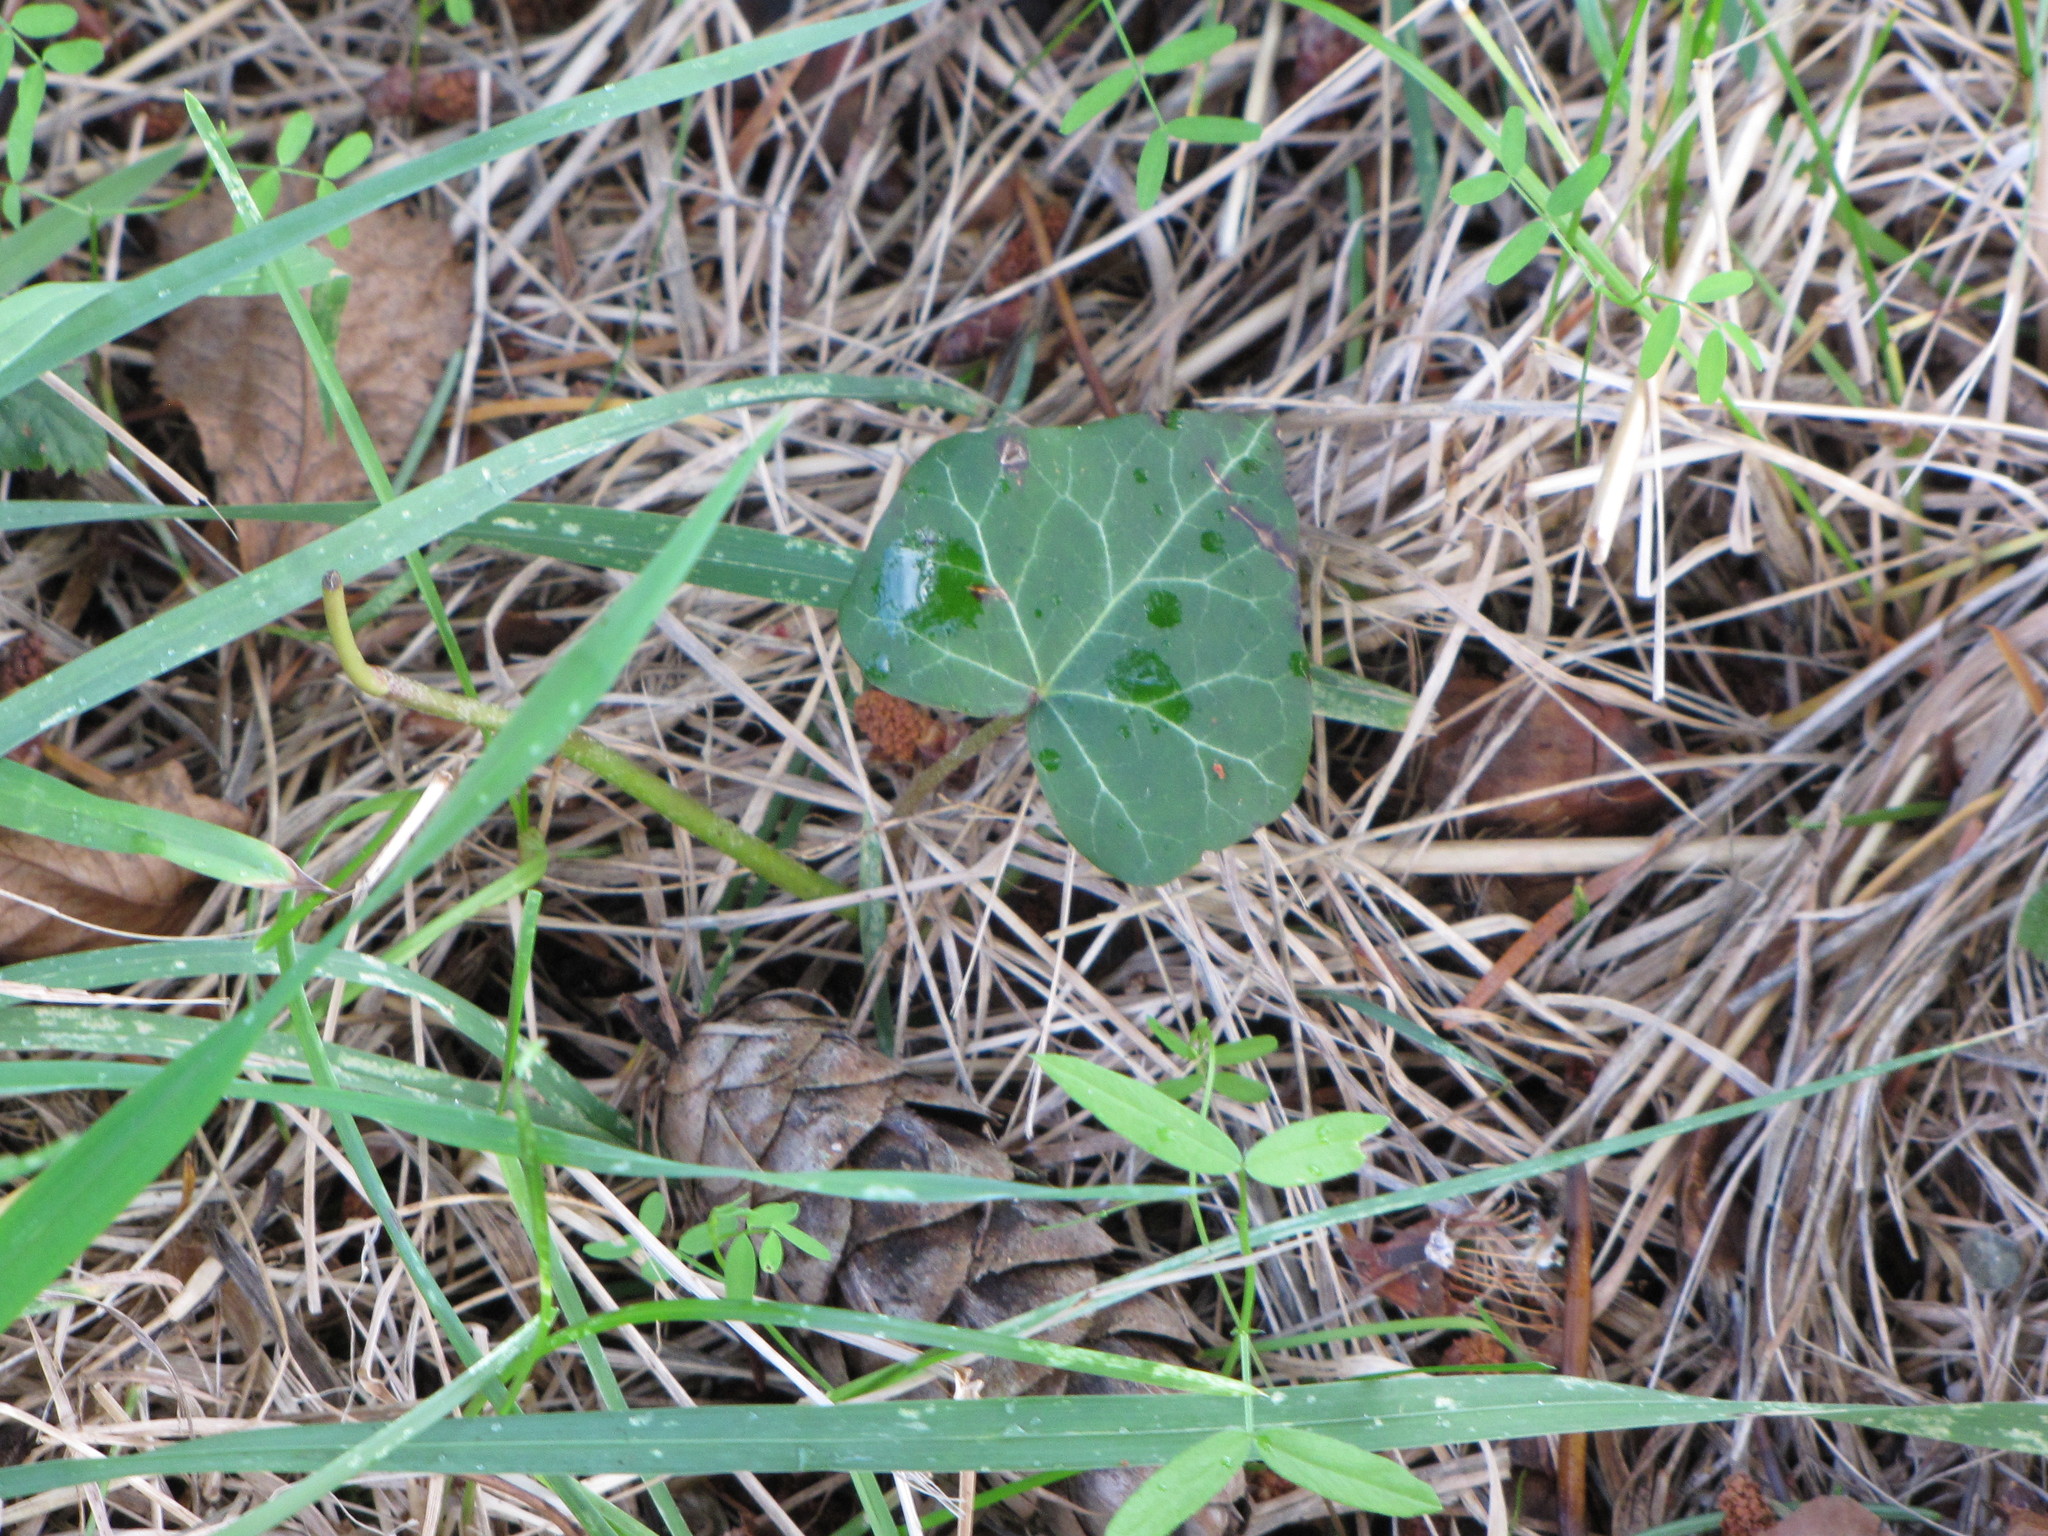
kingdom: Plantae
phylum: Tracheophyta
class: Magnoliopsida
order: Apiales
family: Araliaceae
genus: Hedera
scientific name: Hedera helix
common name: Ivy
